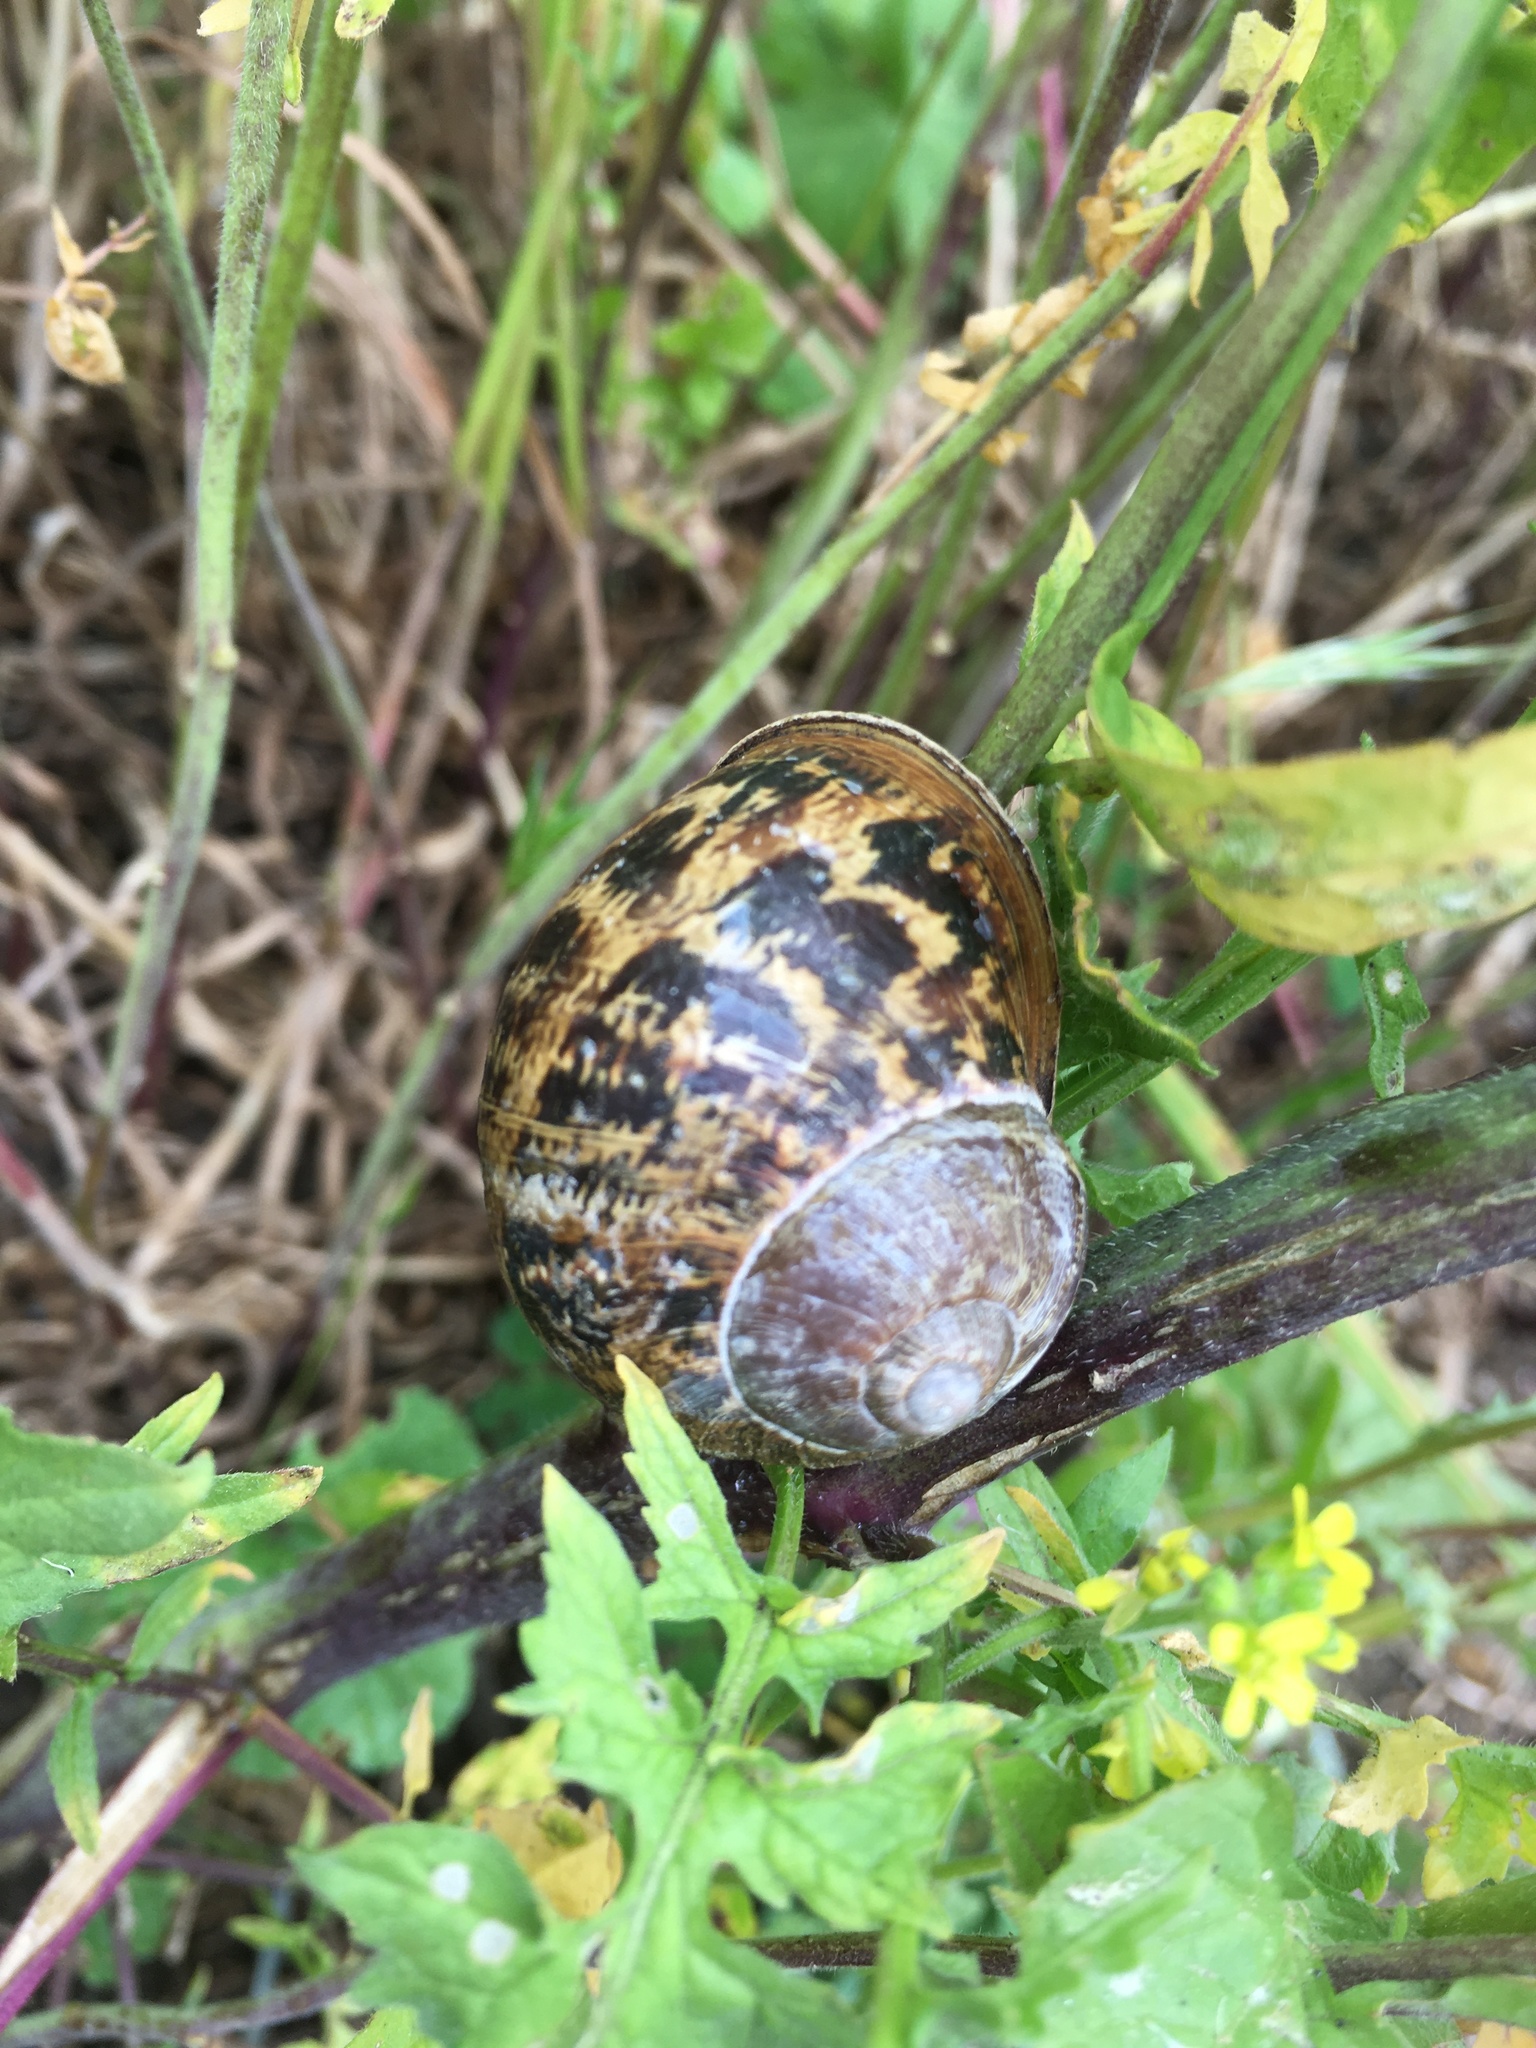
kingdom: Animalia
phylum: Mollusca
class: Gastropoda
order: Stylommatophora
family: Helicidae
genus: Cornu
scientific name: Cornu aspersum
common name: Brown garden snail
